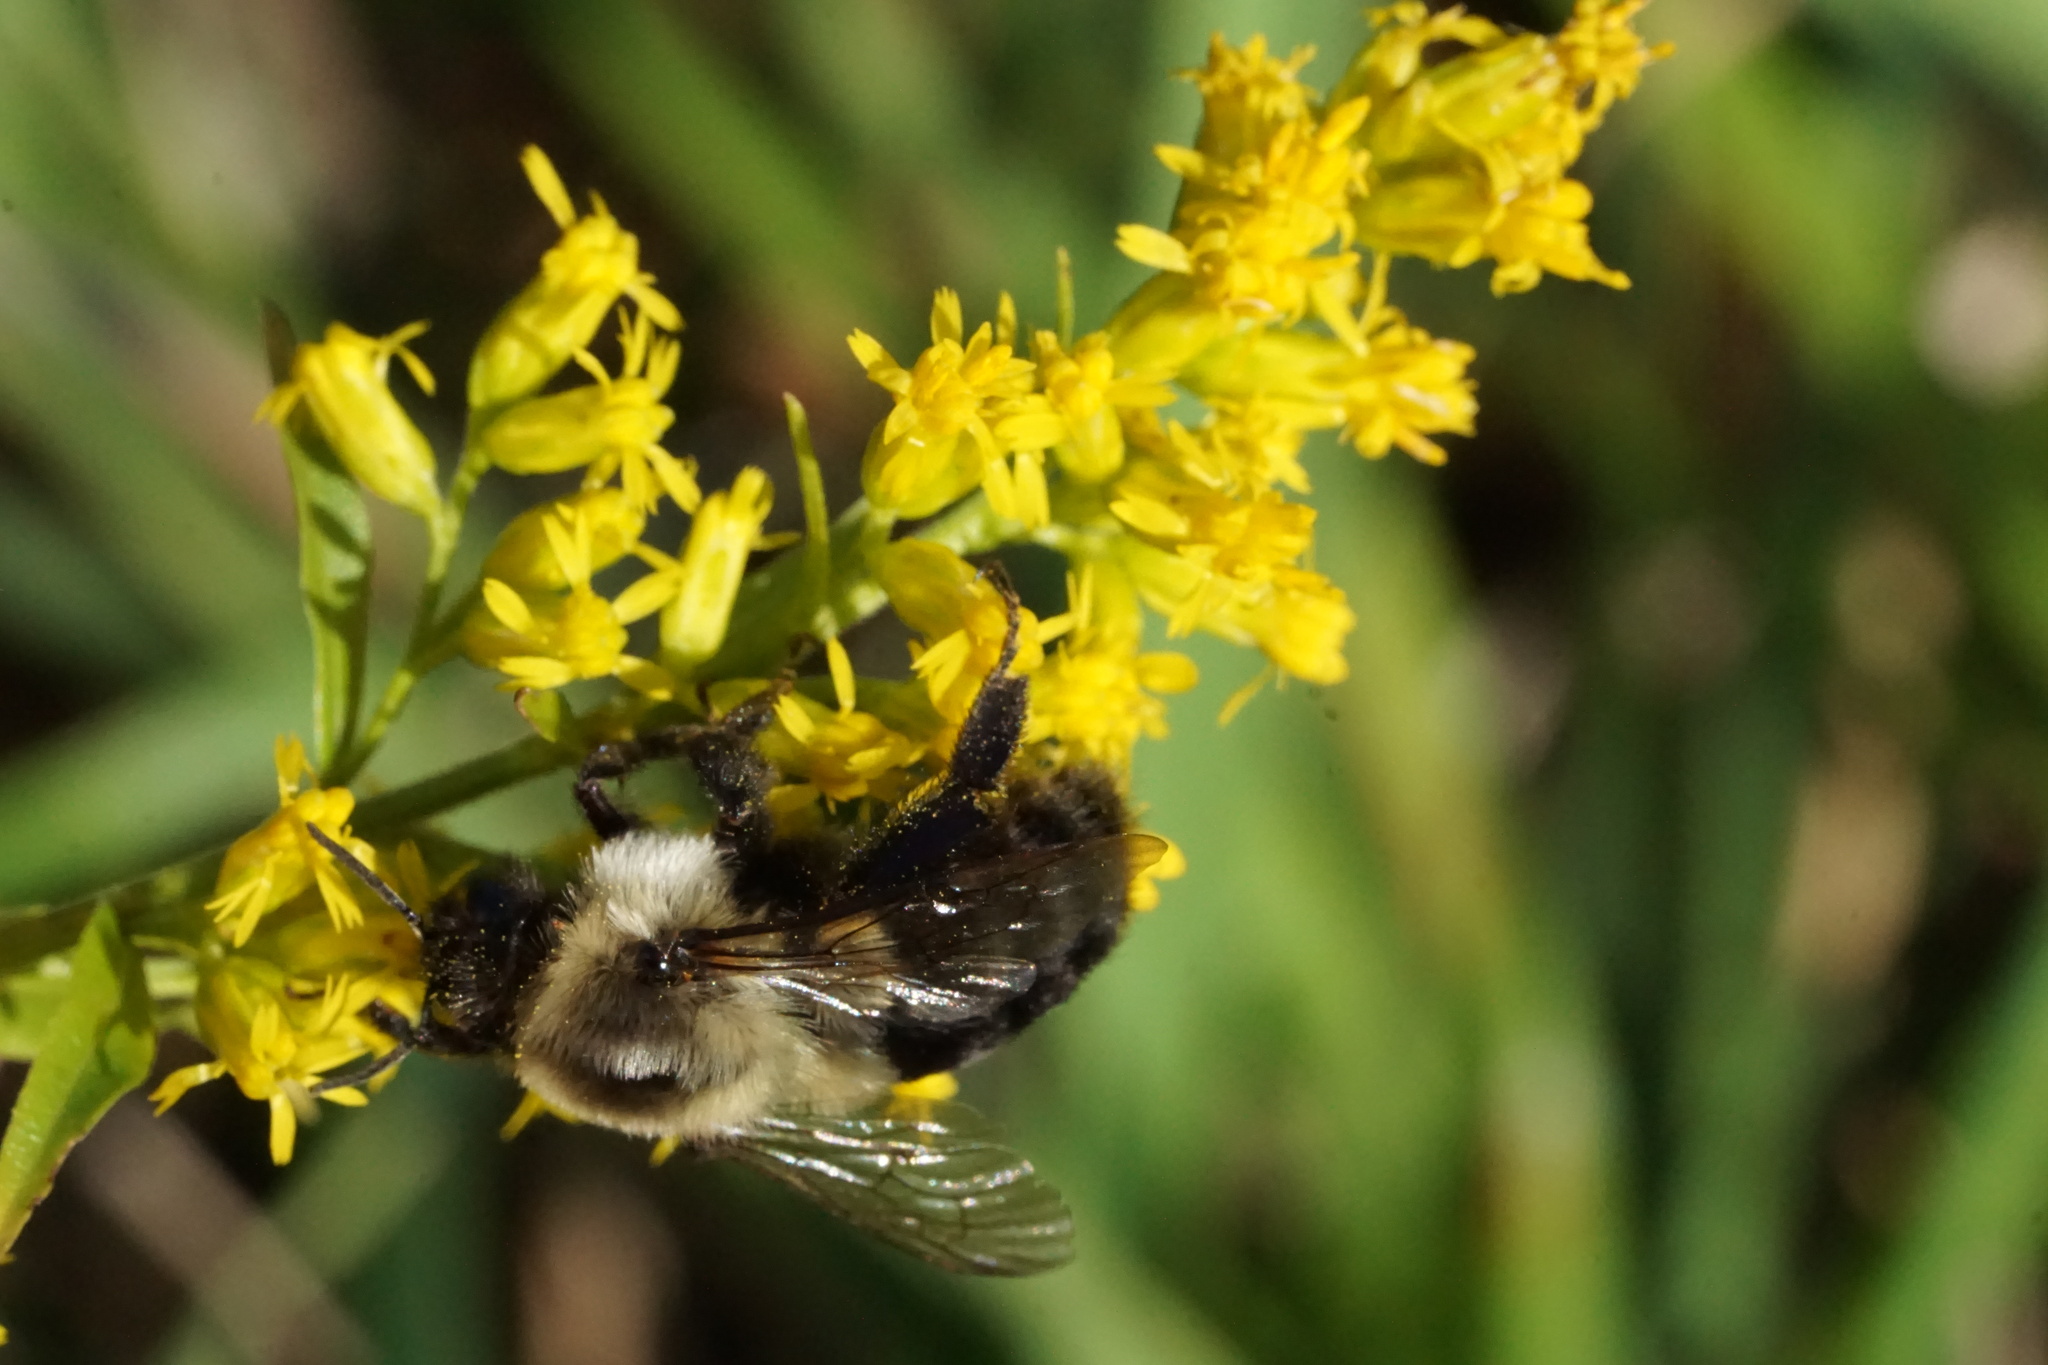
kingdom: Animalia
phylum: Arthropoda
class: Insecta
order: Hymenoptera
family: Apidae
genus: Bombus
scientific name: Bombus impatiens
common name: Common eastern bumble bee
